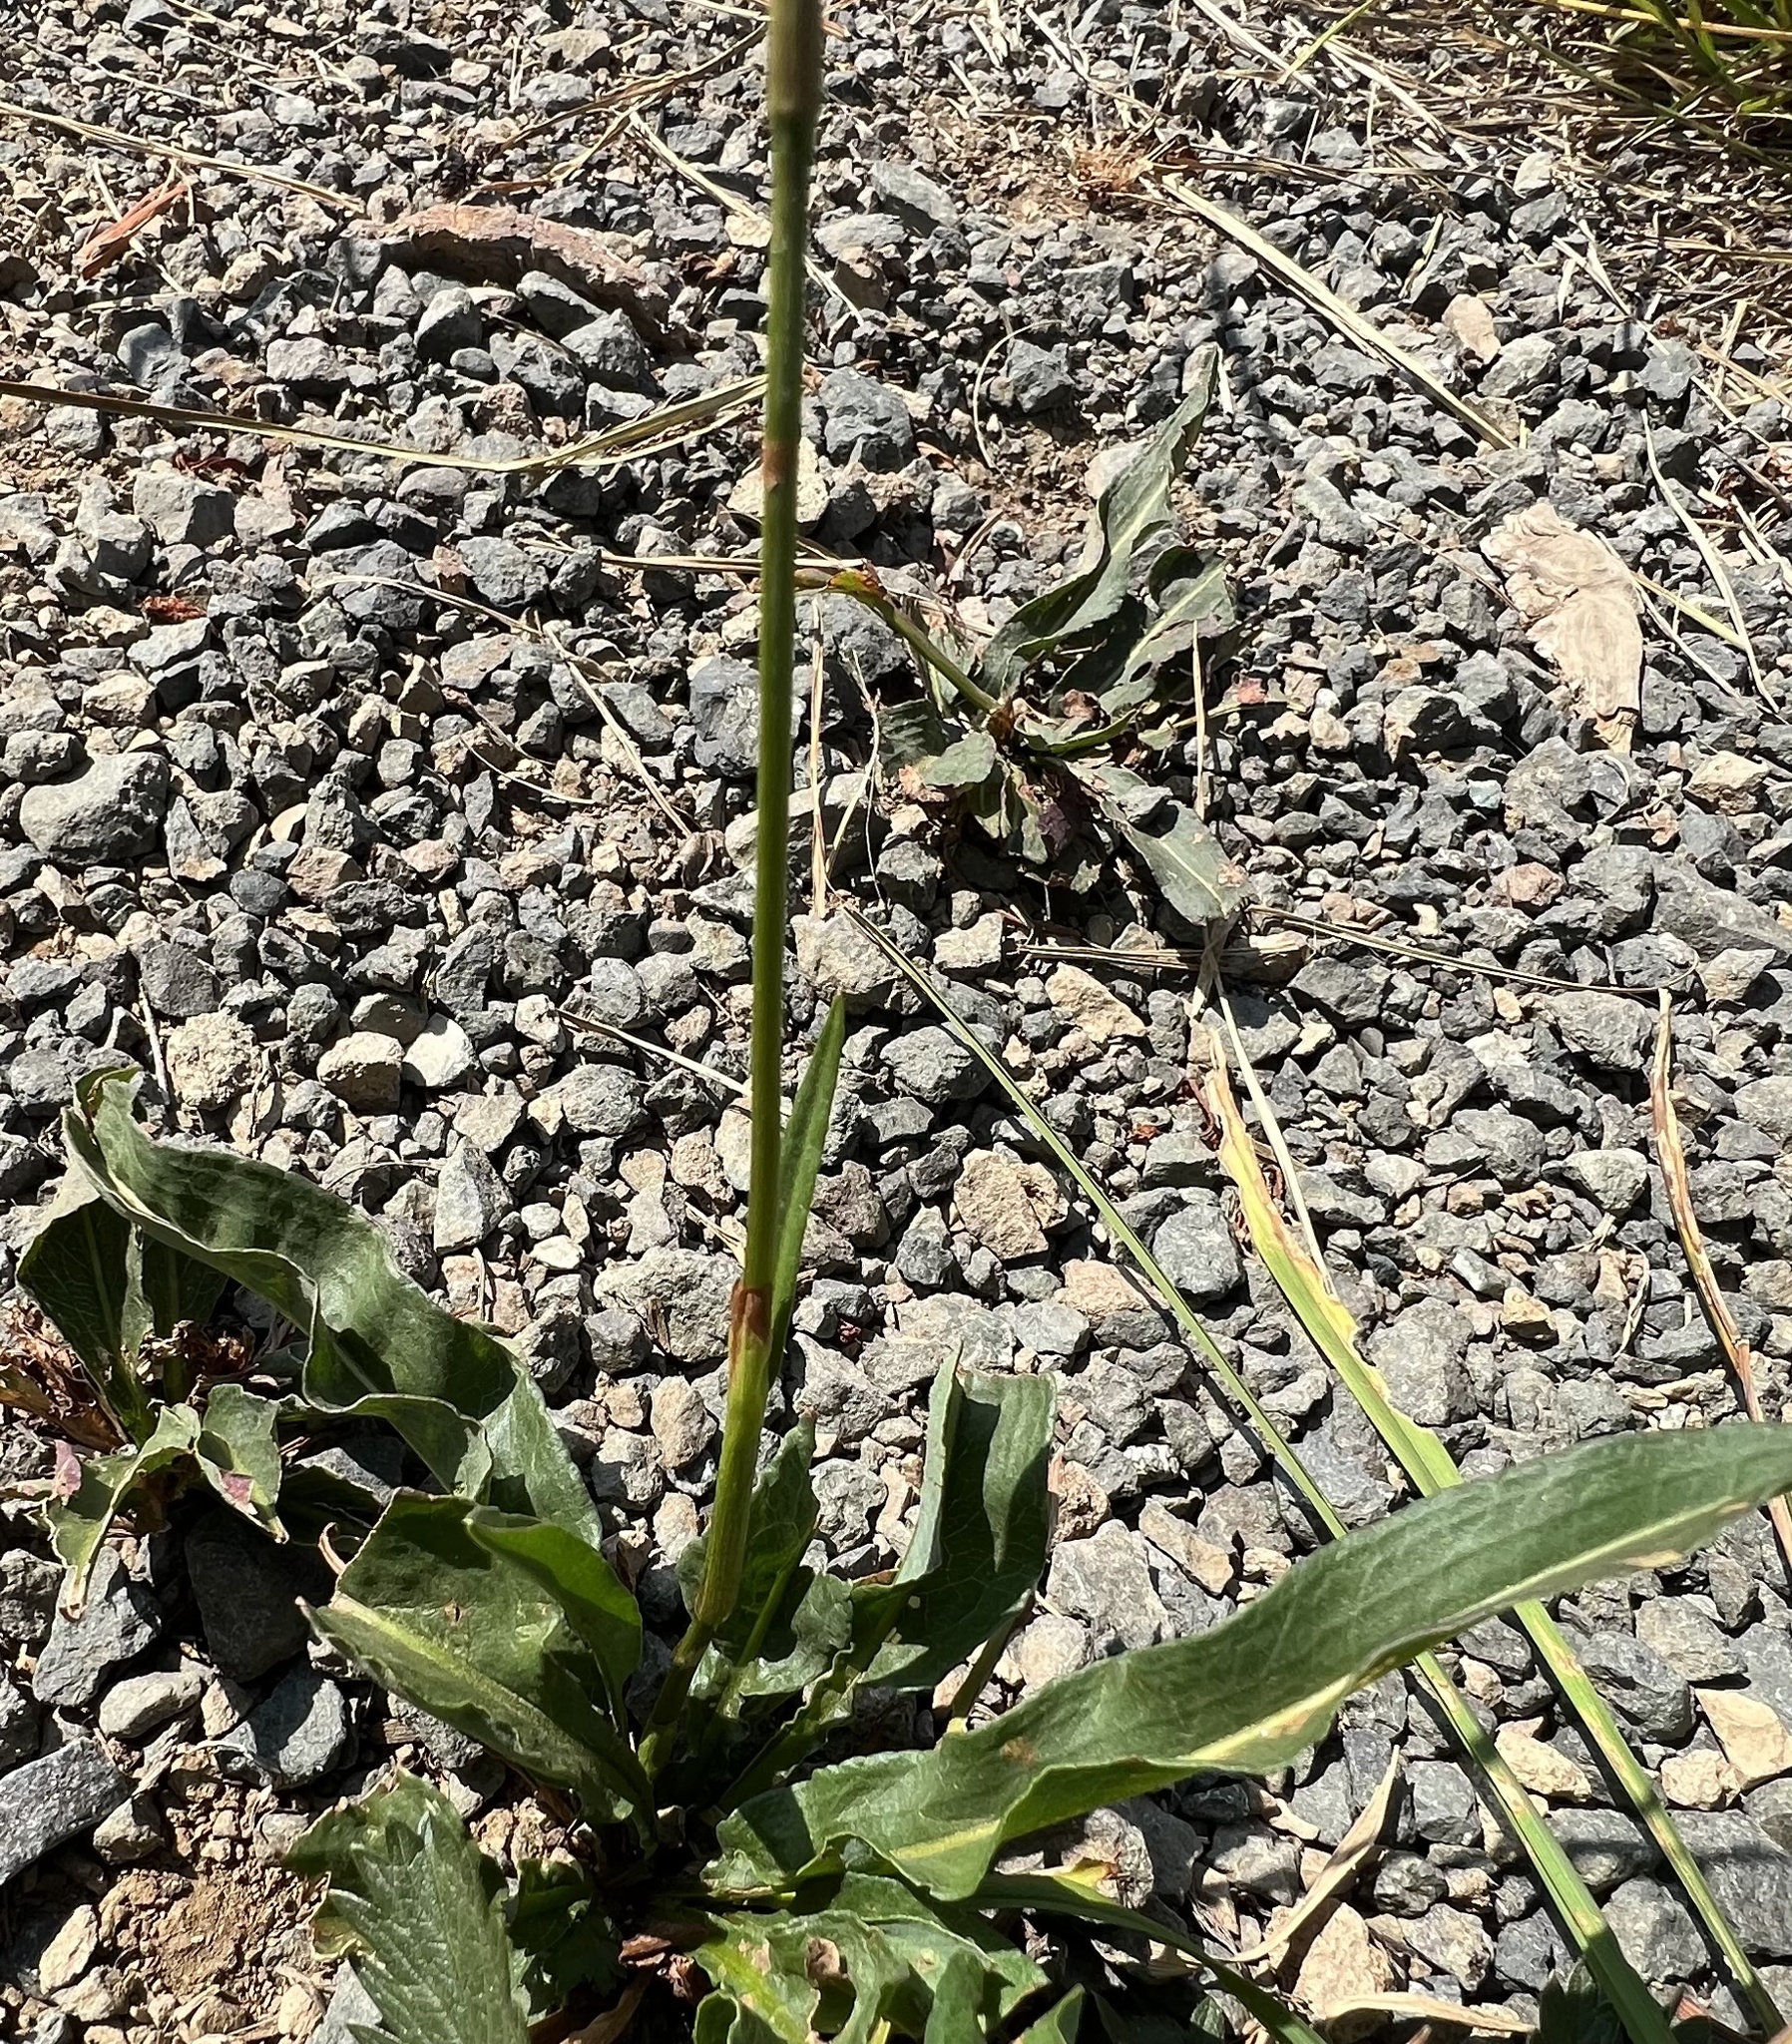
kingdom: Plantae
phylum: Tracheophyta
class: Magnoliopsida
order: Caryophyllales
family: Polygonaceae
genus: Bistorta
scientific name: Bistorta bistortoides
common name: American bistort
